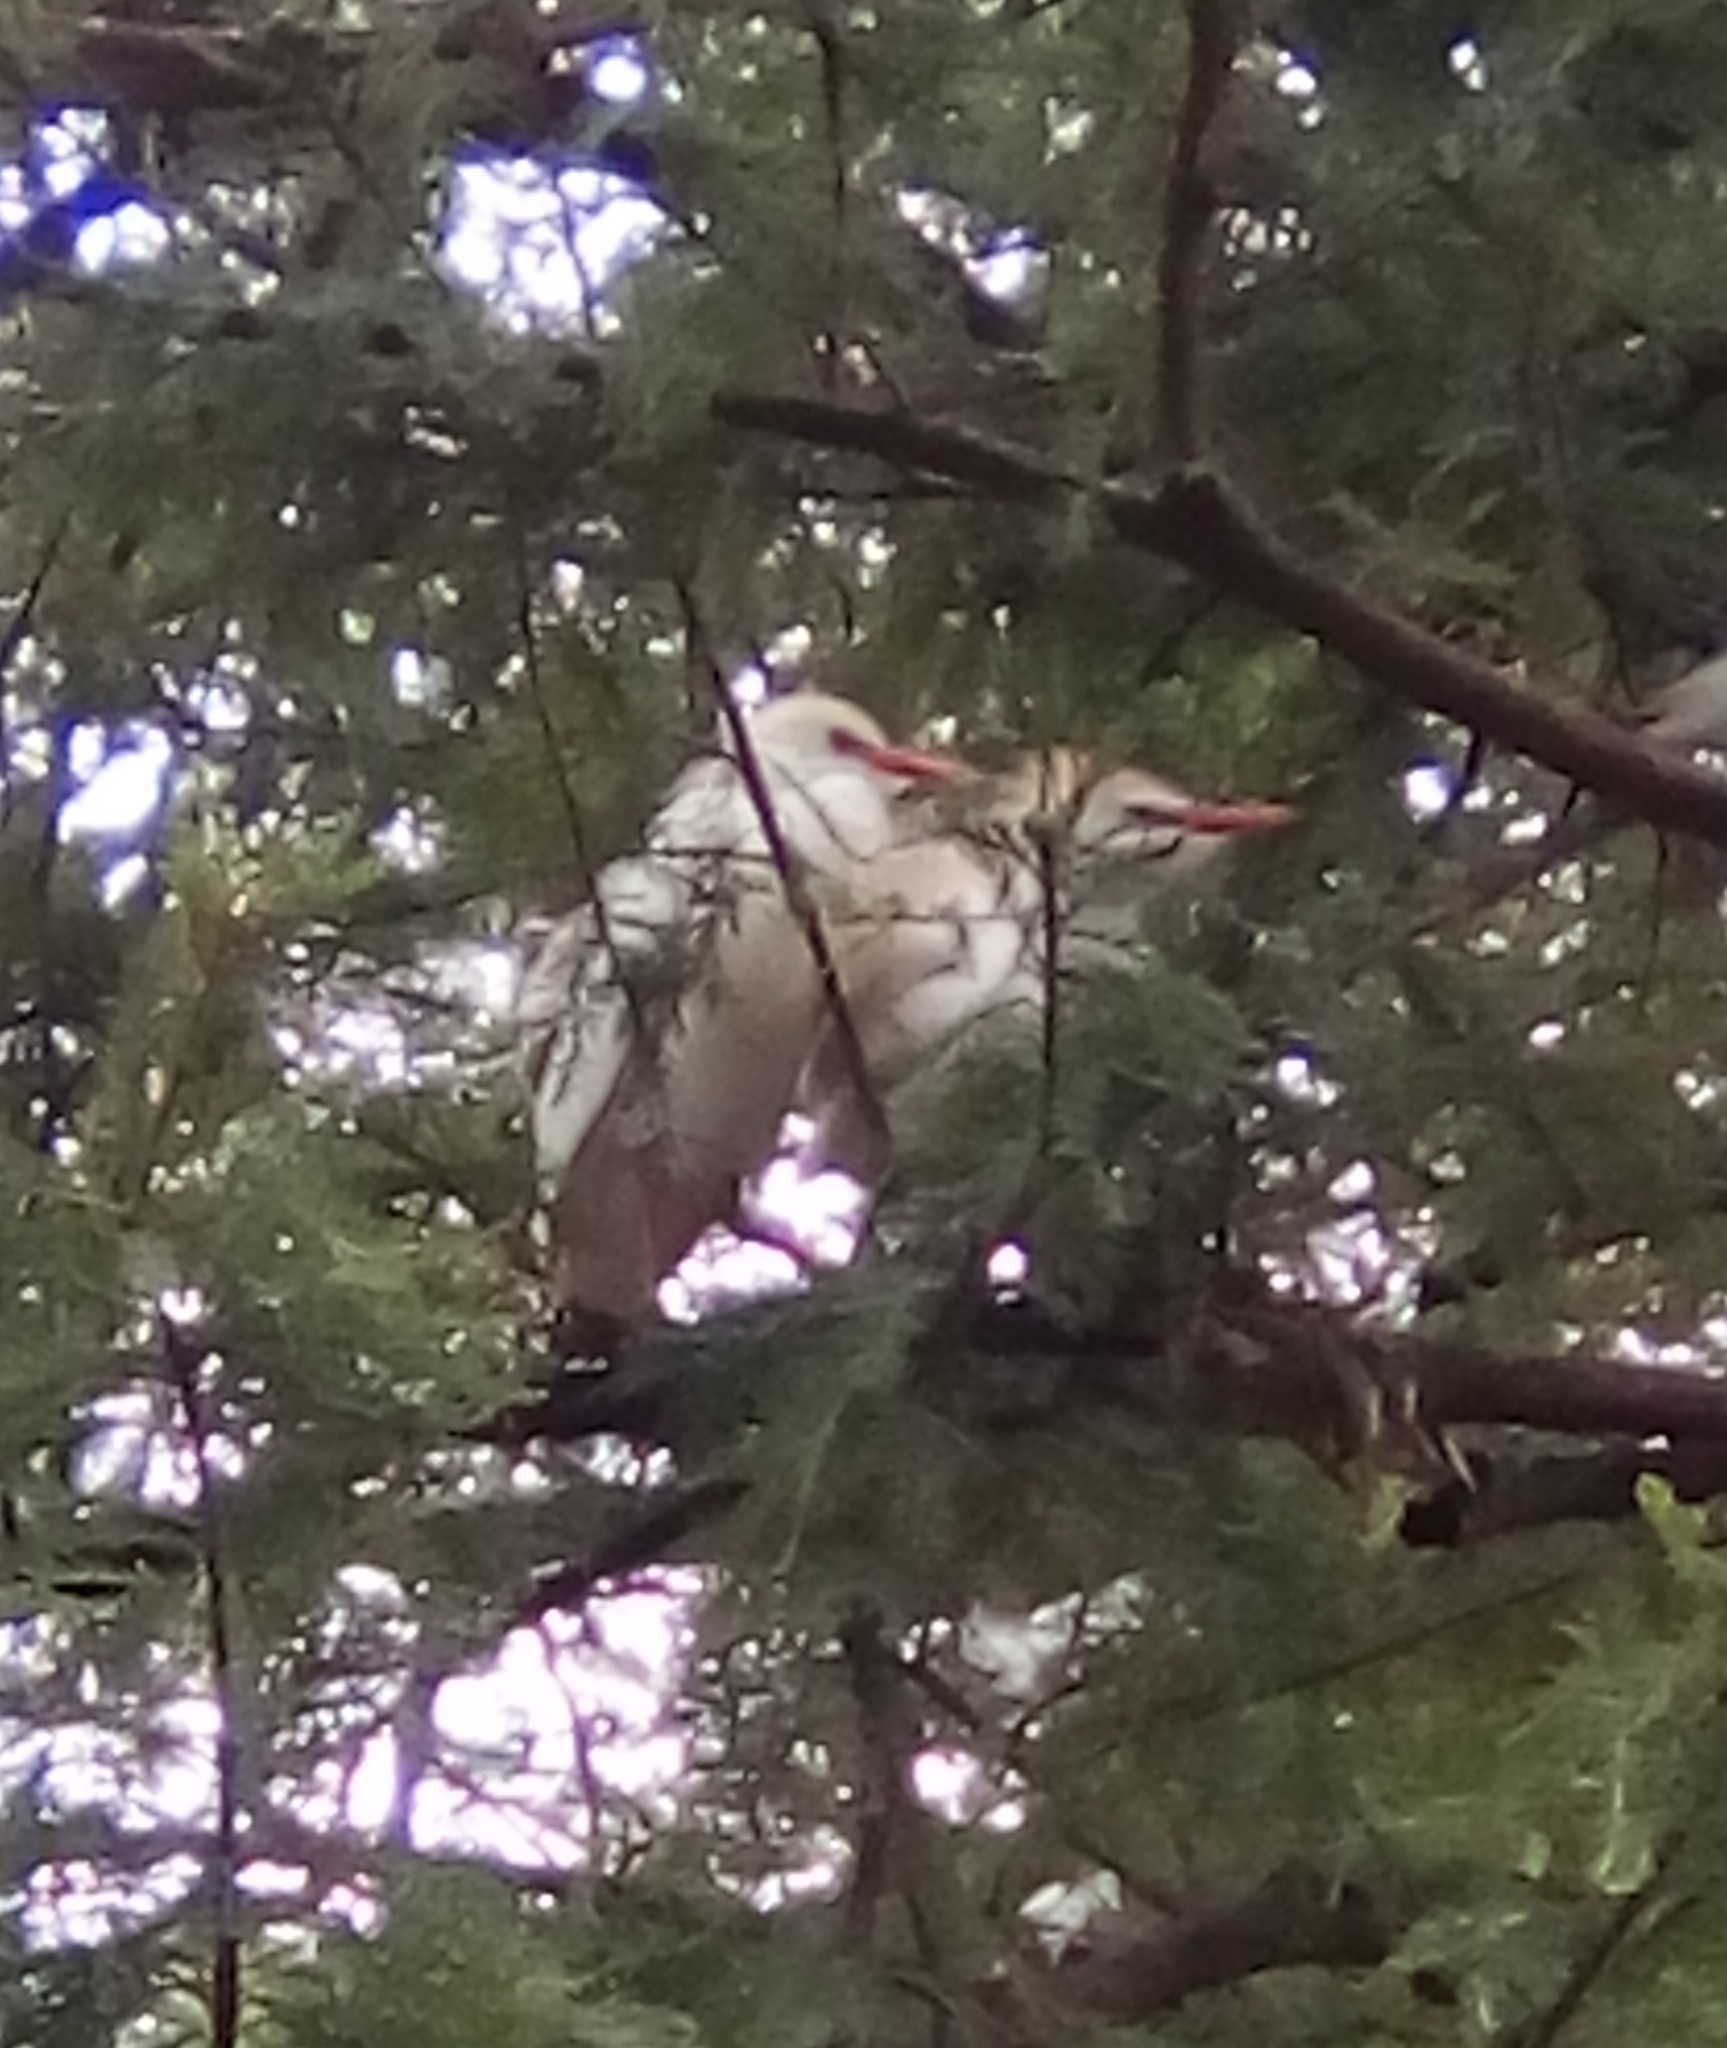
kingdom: Animalia
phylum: Chordata
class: Aves
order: Pelecaniformes
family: Ardeidae
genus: Bubulcus
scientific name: Bubulcus ibis
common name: Cattle egret
